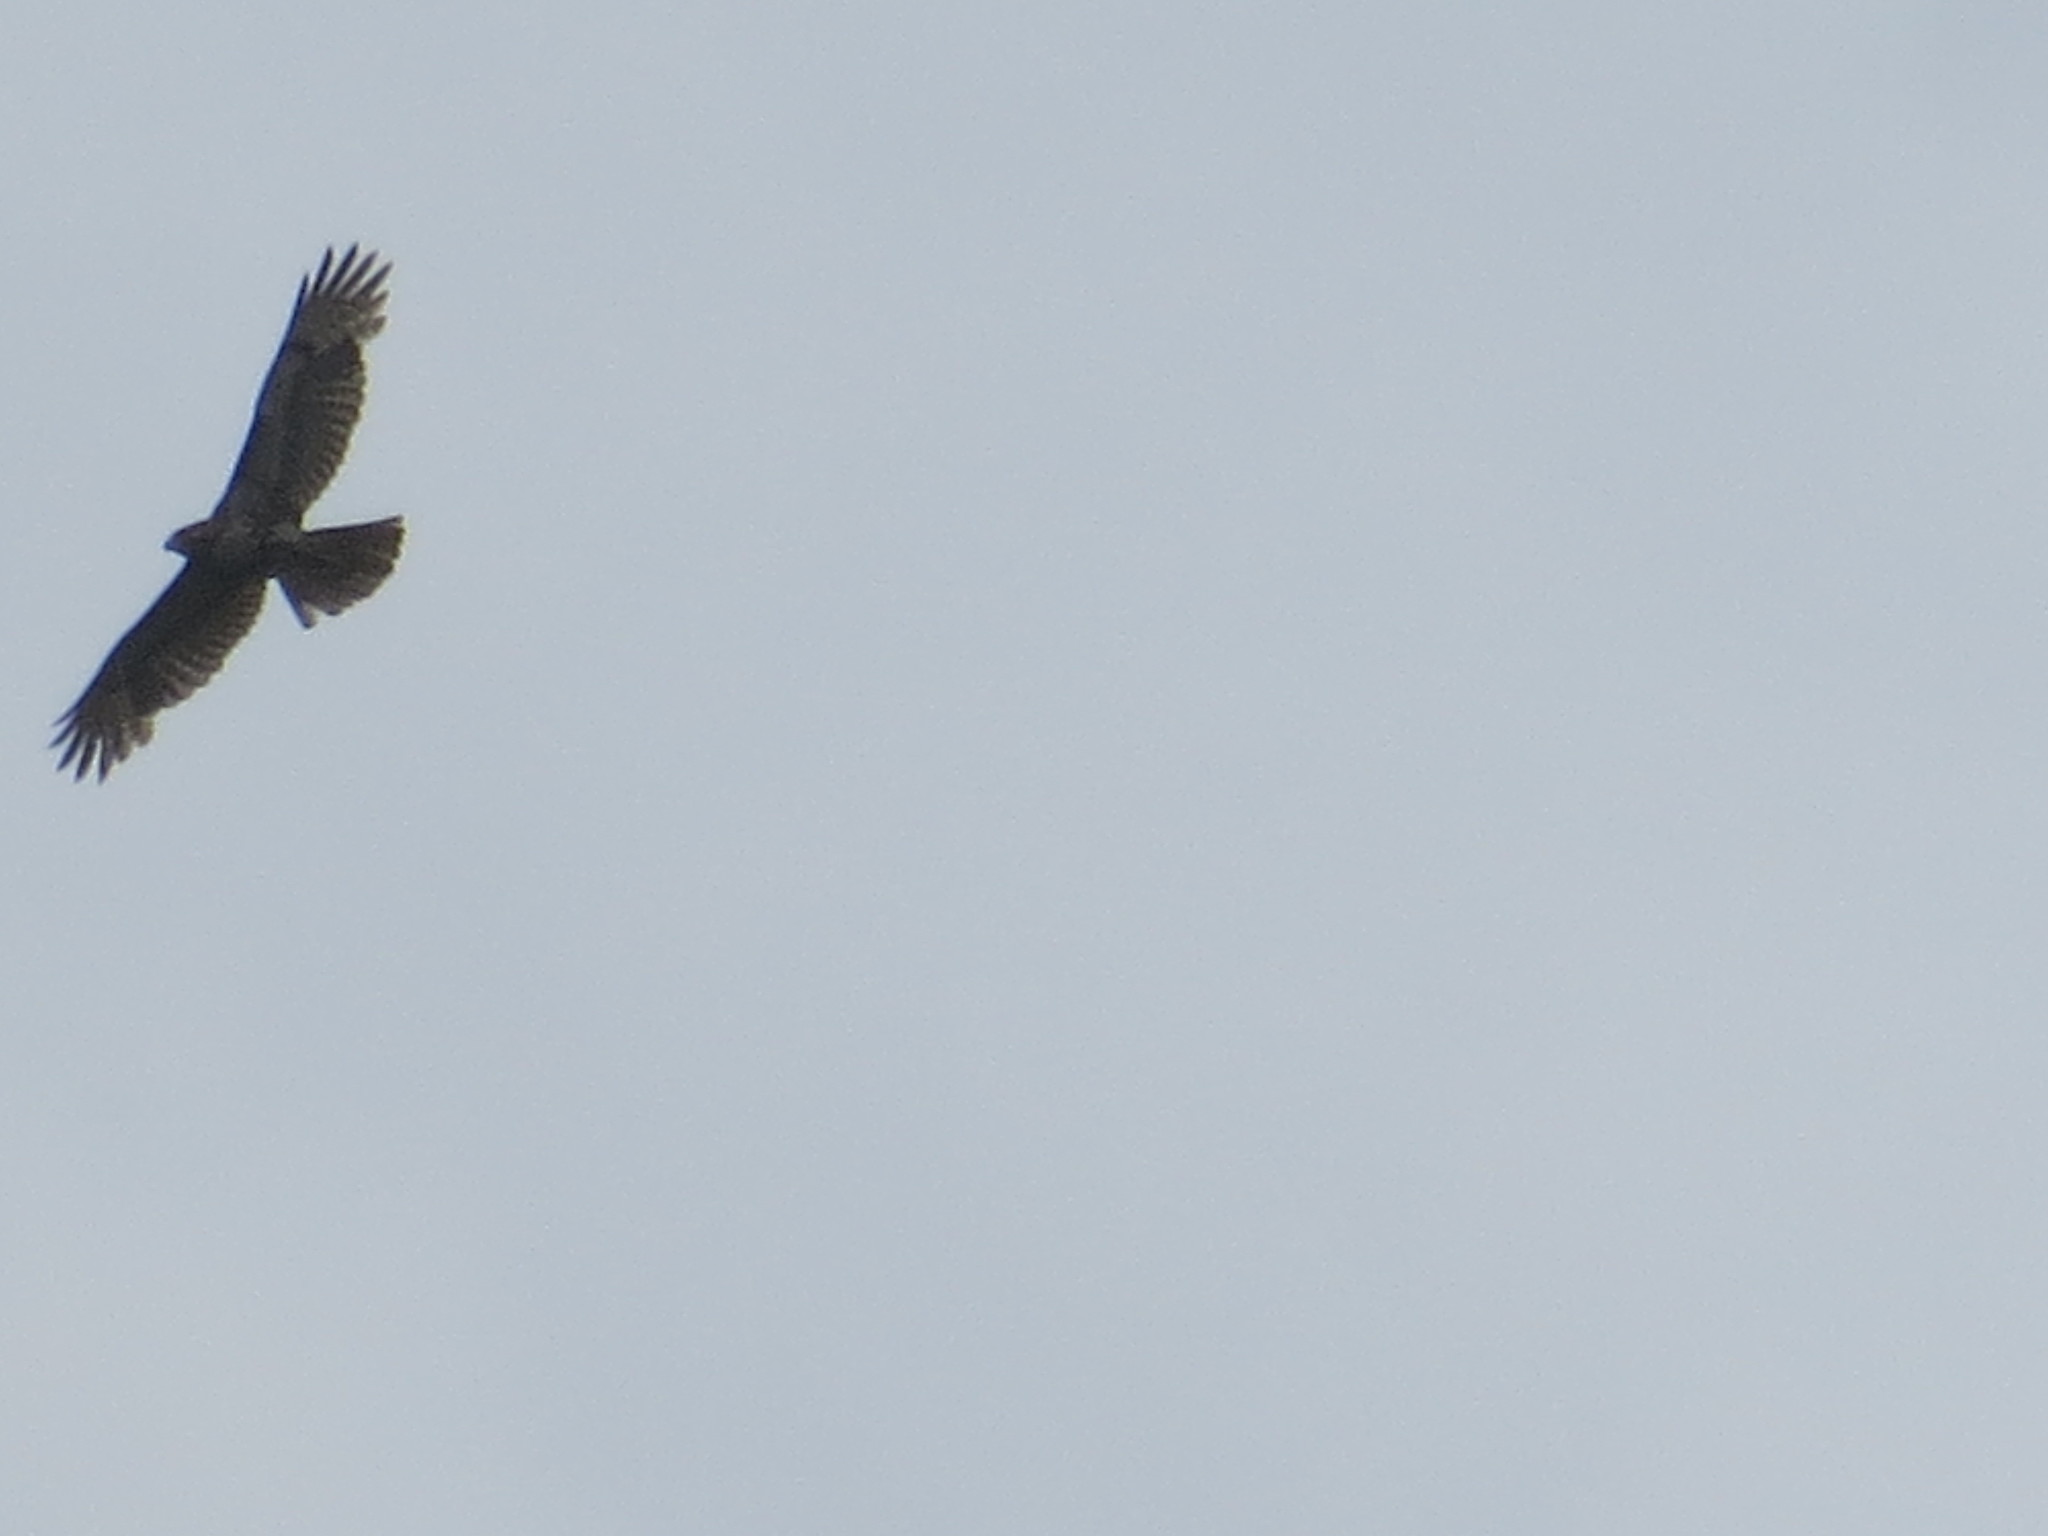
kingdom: Animalia
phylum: Chordata
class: Aves
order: Accipitriformes
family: Accipitridae
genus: Buteo
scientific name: Buteo jamaicensis
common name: Red-tailed hawk
